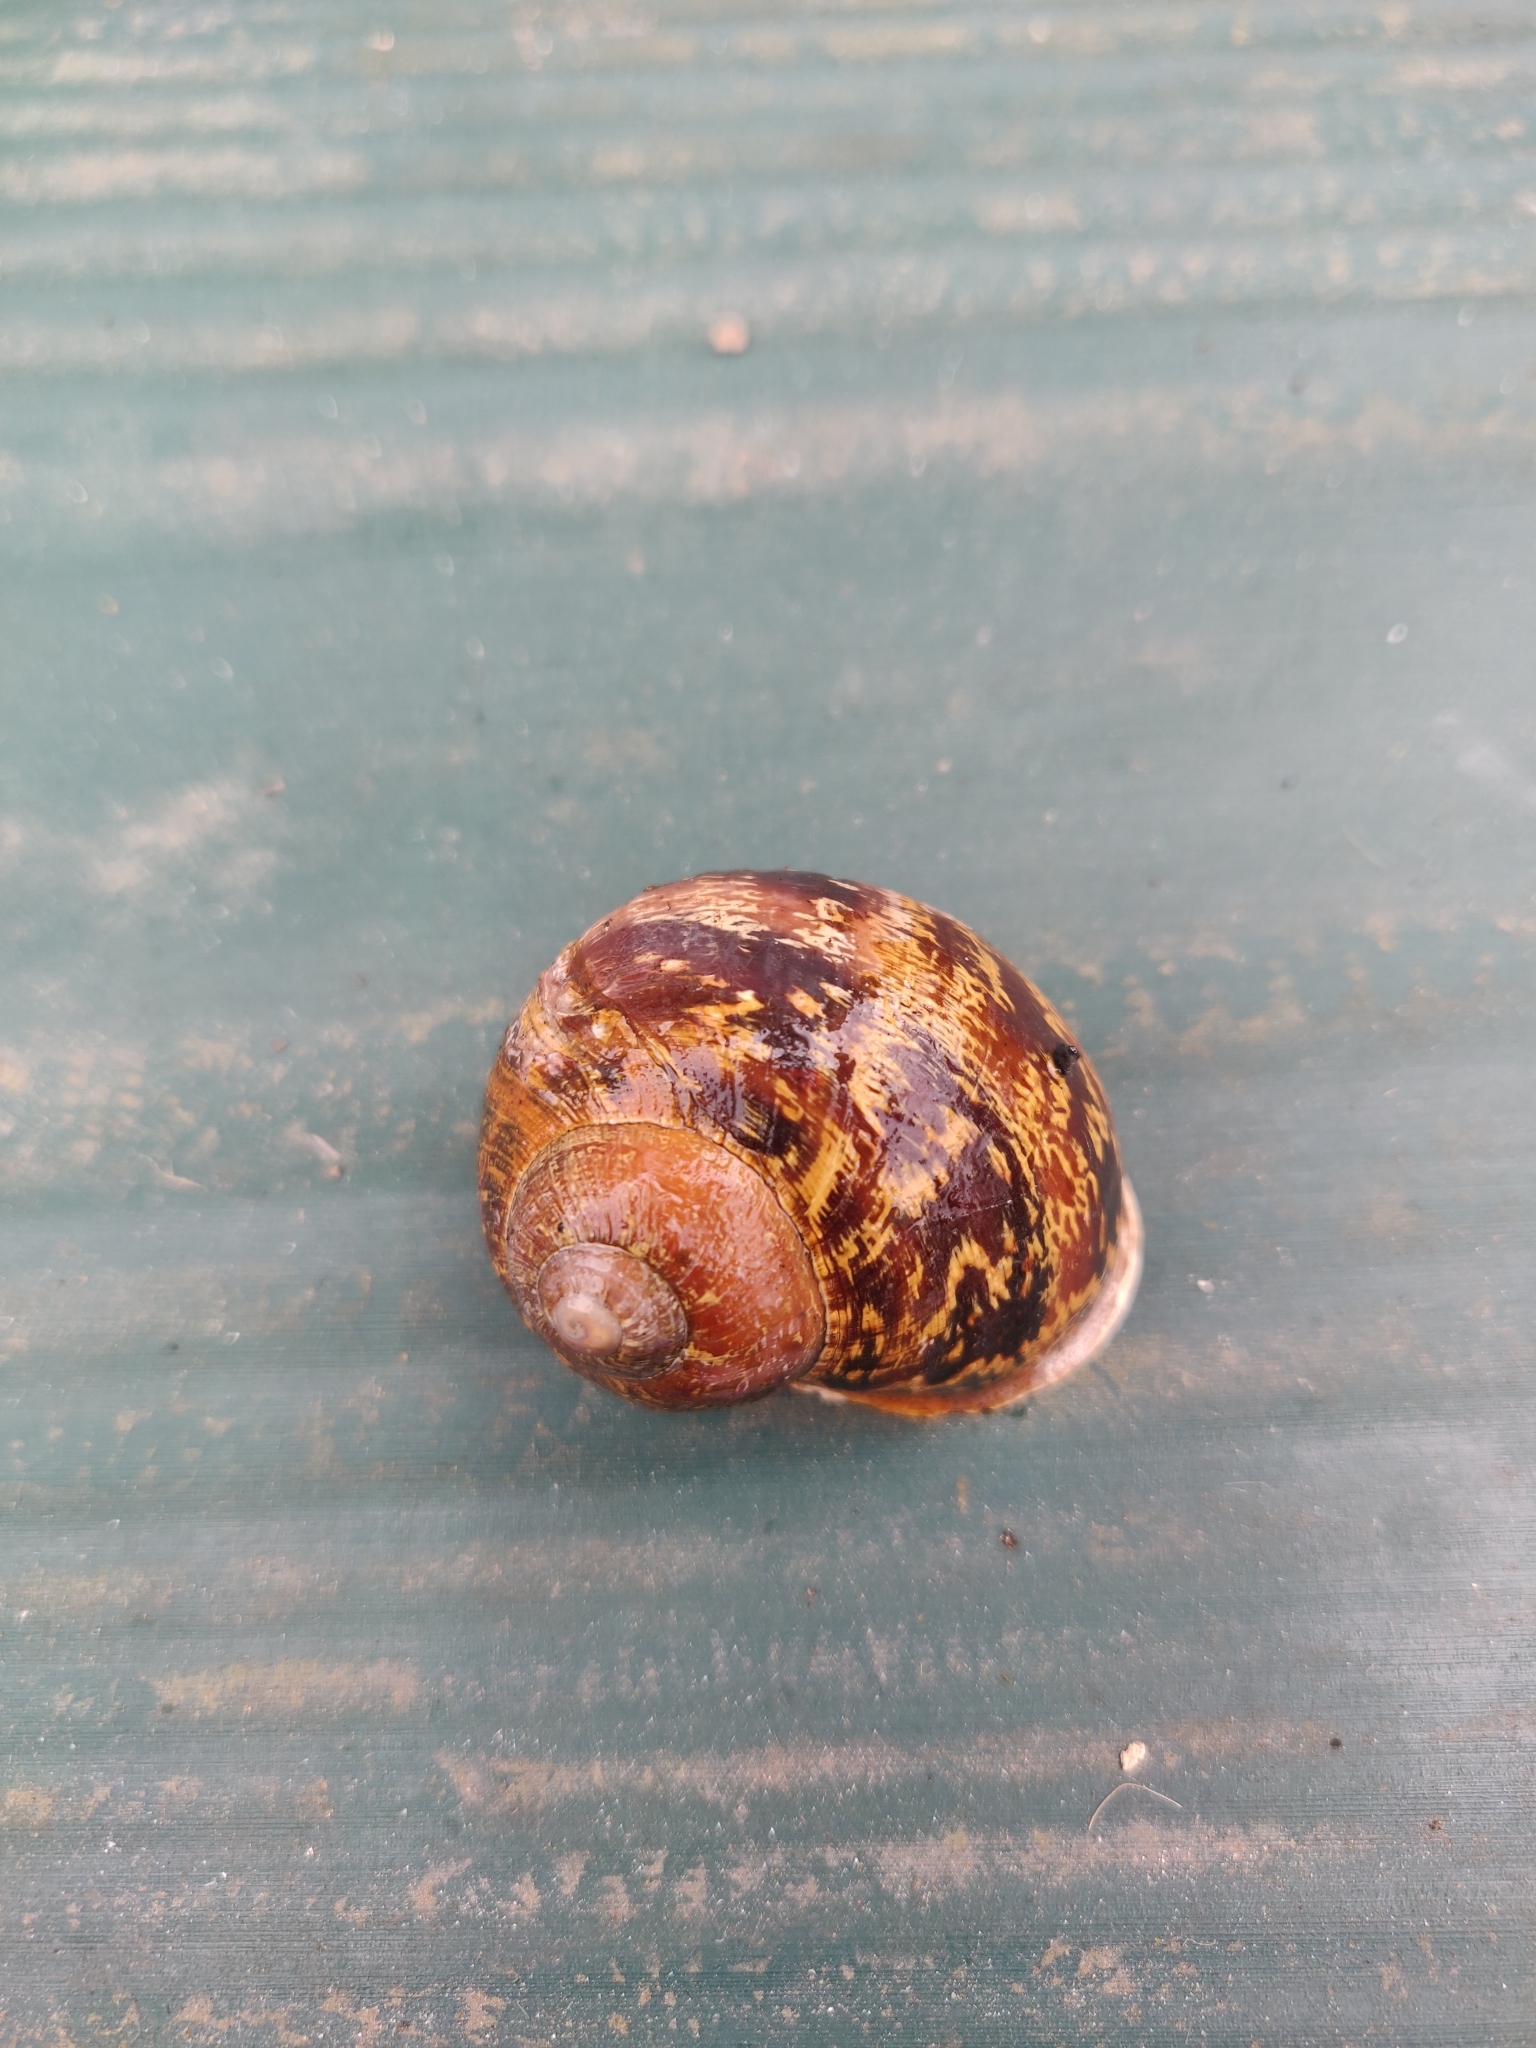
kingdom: Animalia
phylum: Mollusca
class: Gastropoda
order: Stylommatophora
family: Helicidae
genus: Cornu
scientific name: Cornu aspersum
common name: Brown garden snail
